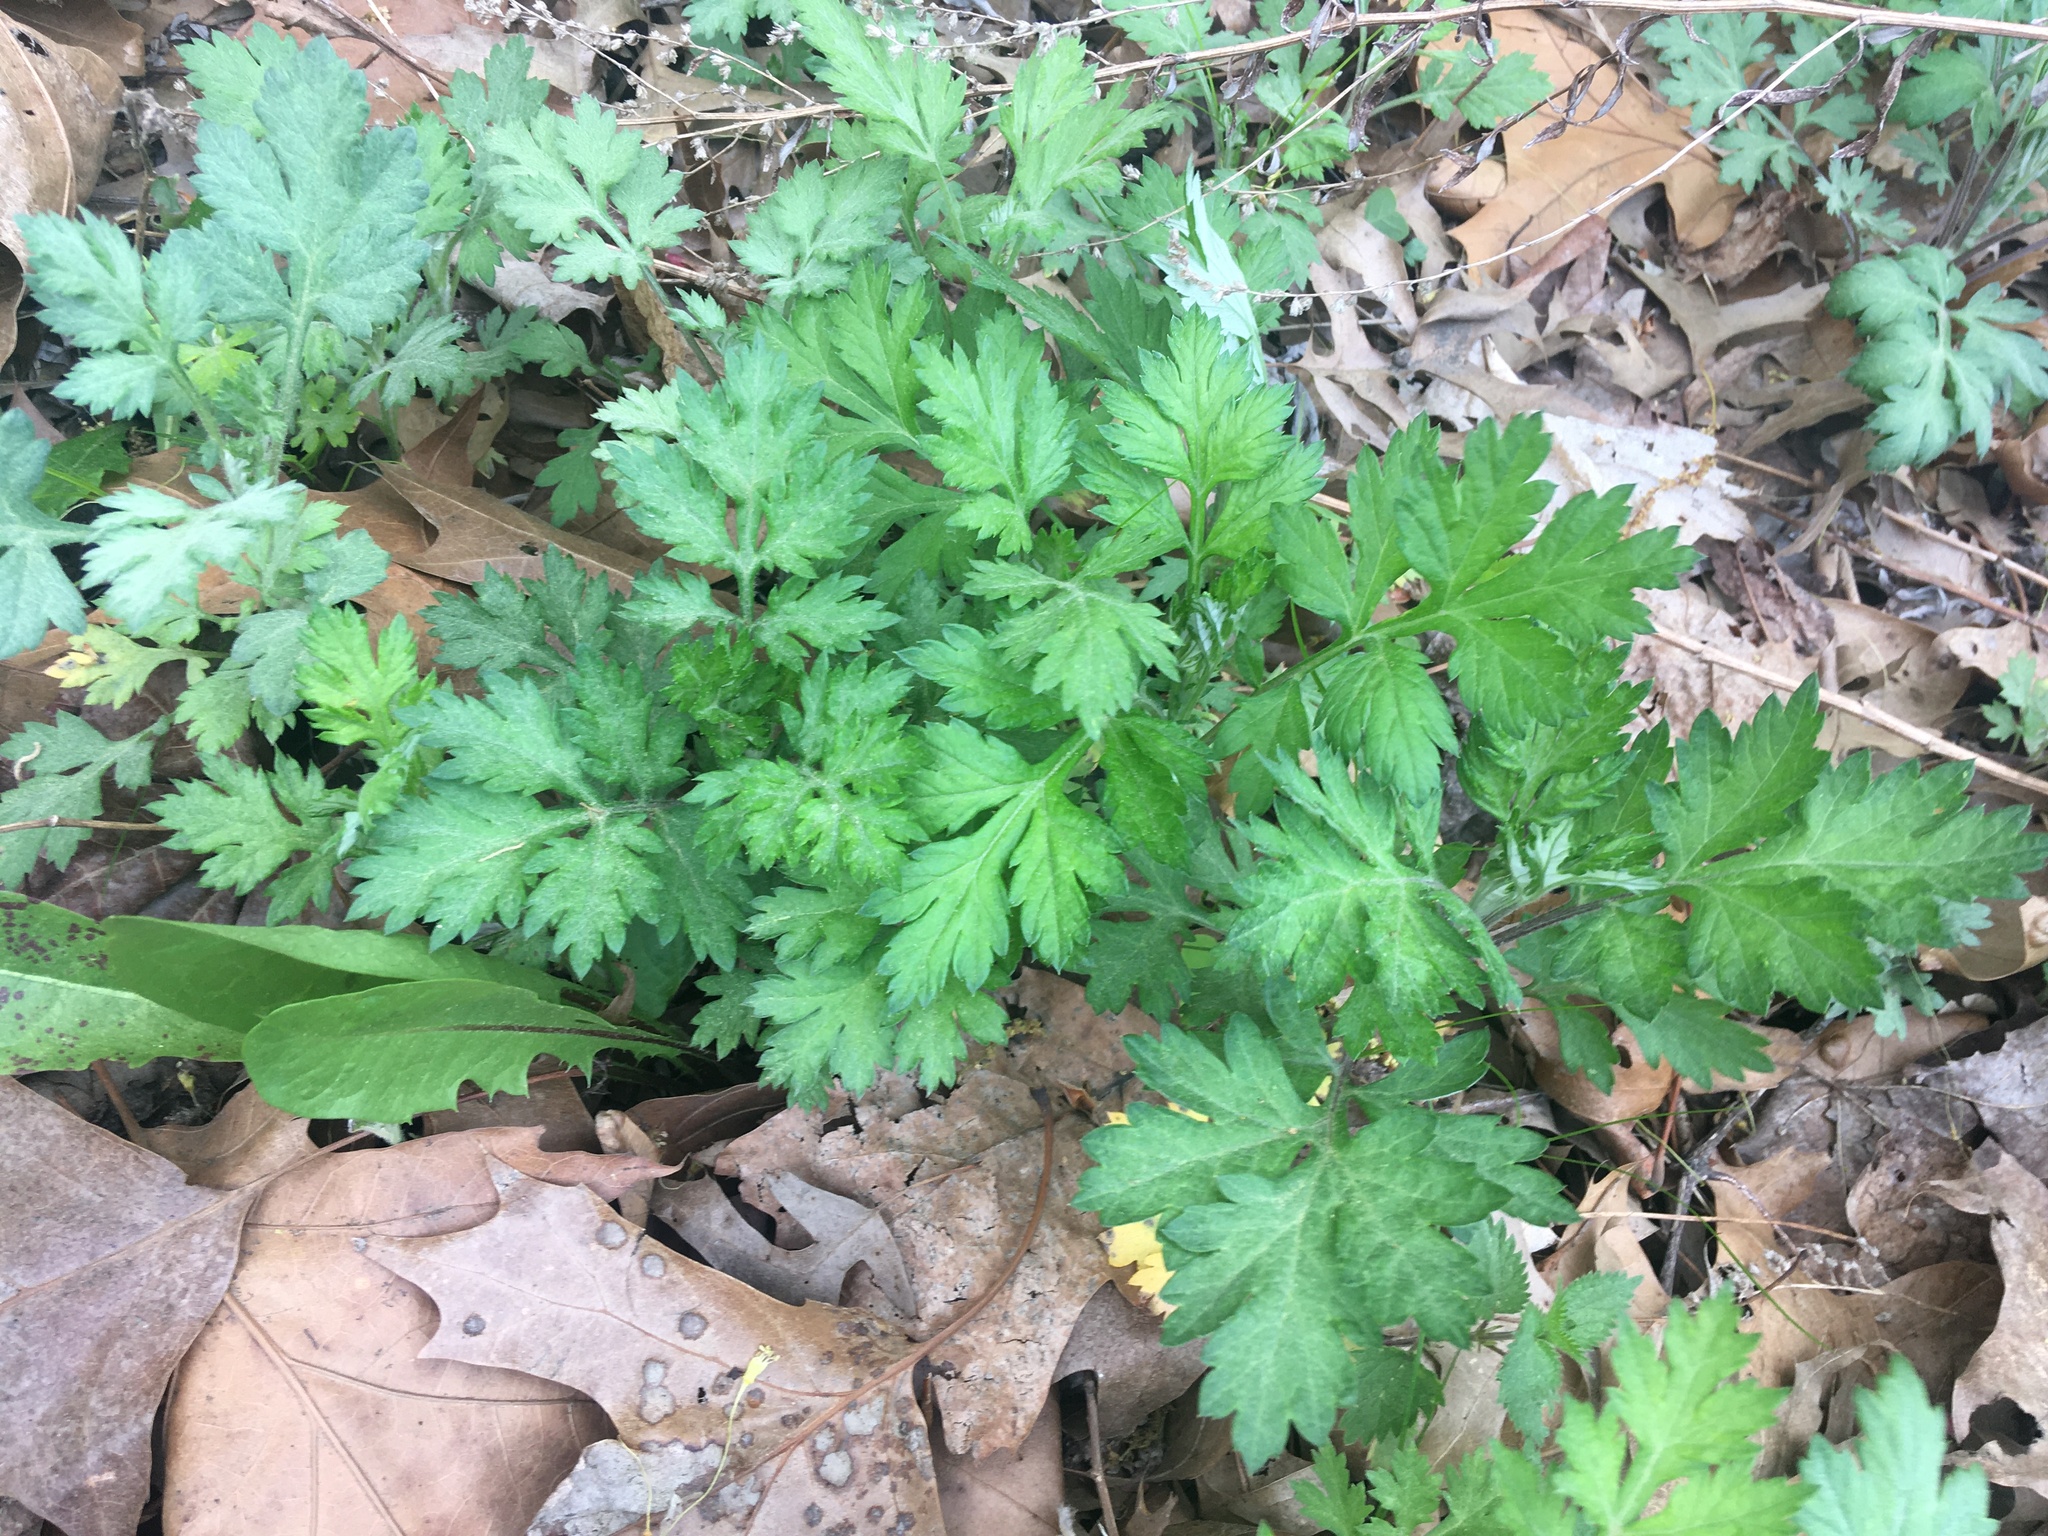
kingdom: Plantae
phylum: Tracheophyta
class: Magnoliopsida
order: Asterales
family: Asteraceae
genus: Artemisia
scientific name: Artemisia vulgaris
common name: Mugwort
